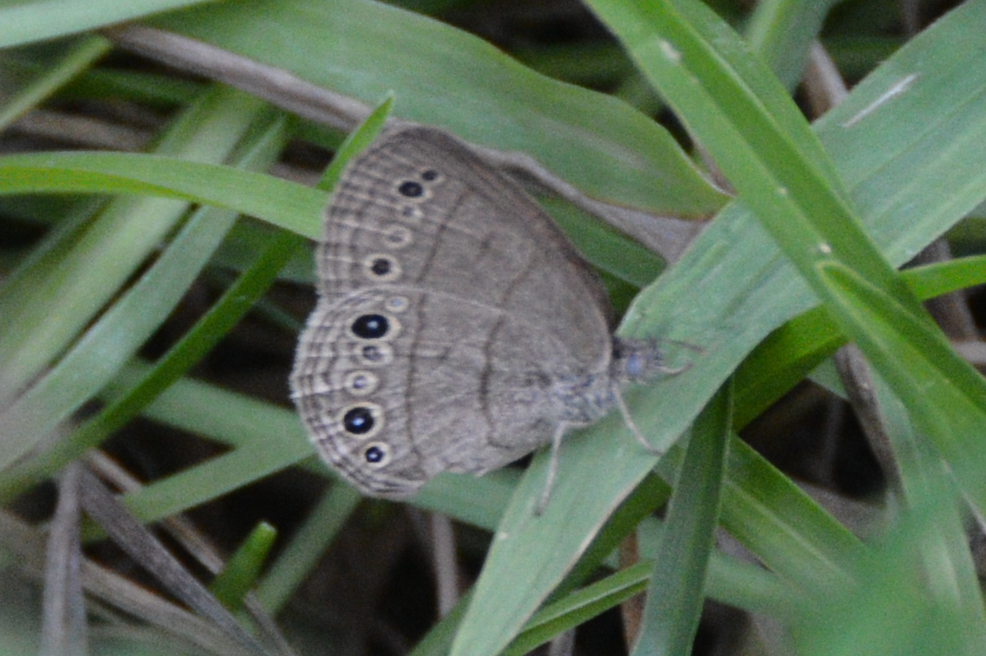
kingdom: Animalia
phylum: Arthropoda
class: Insecta
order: Lepidoptera
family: Nymphalidae
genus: Hermeuptychia
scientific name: Hermeuptychia hermes
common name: Hermes satyr
